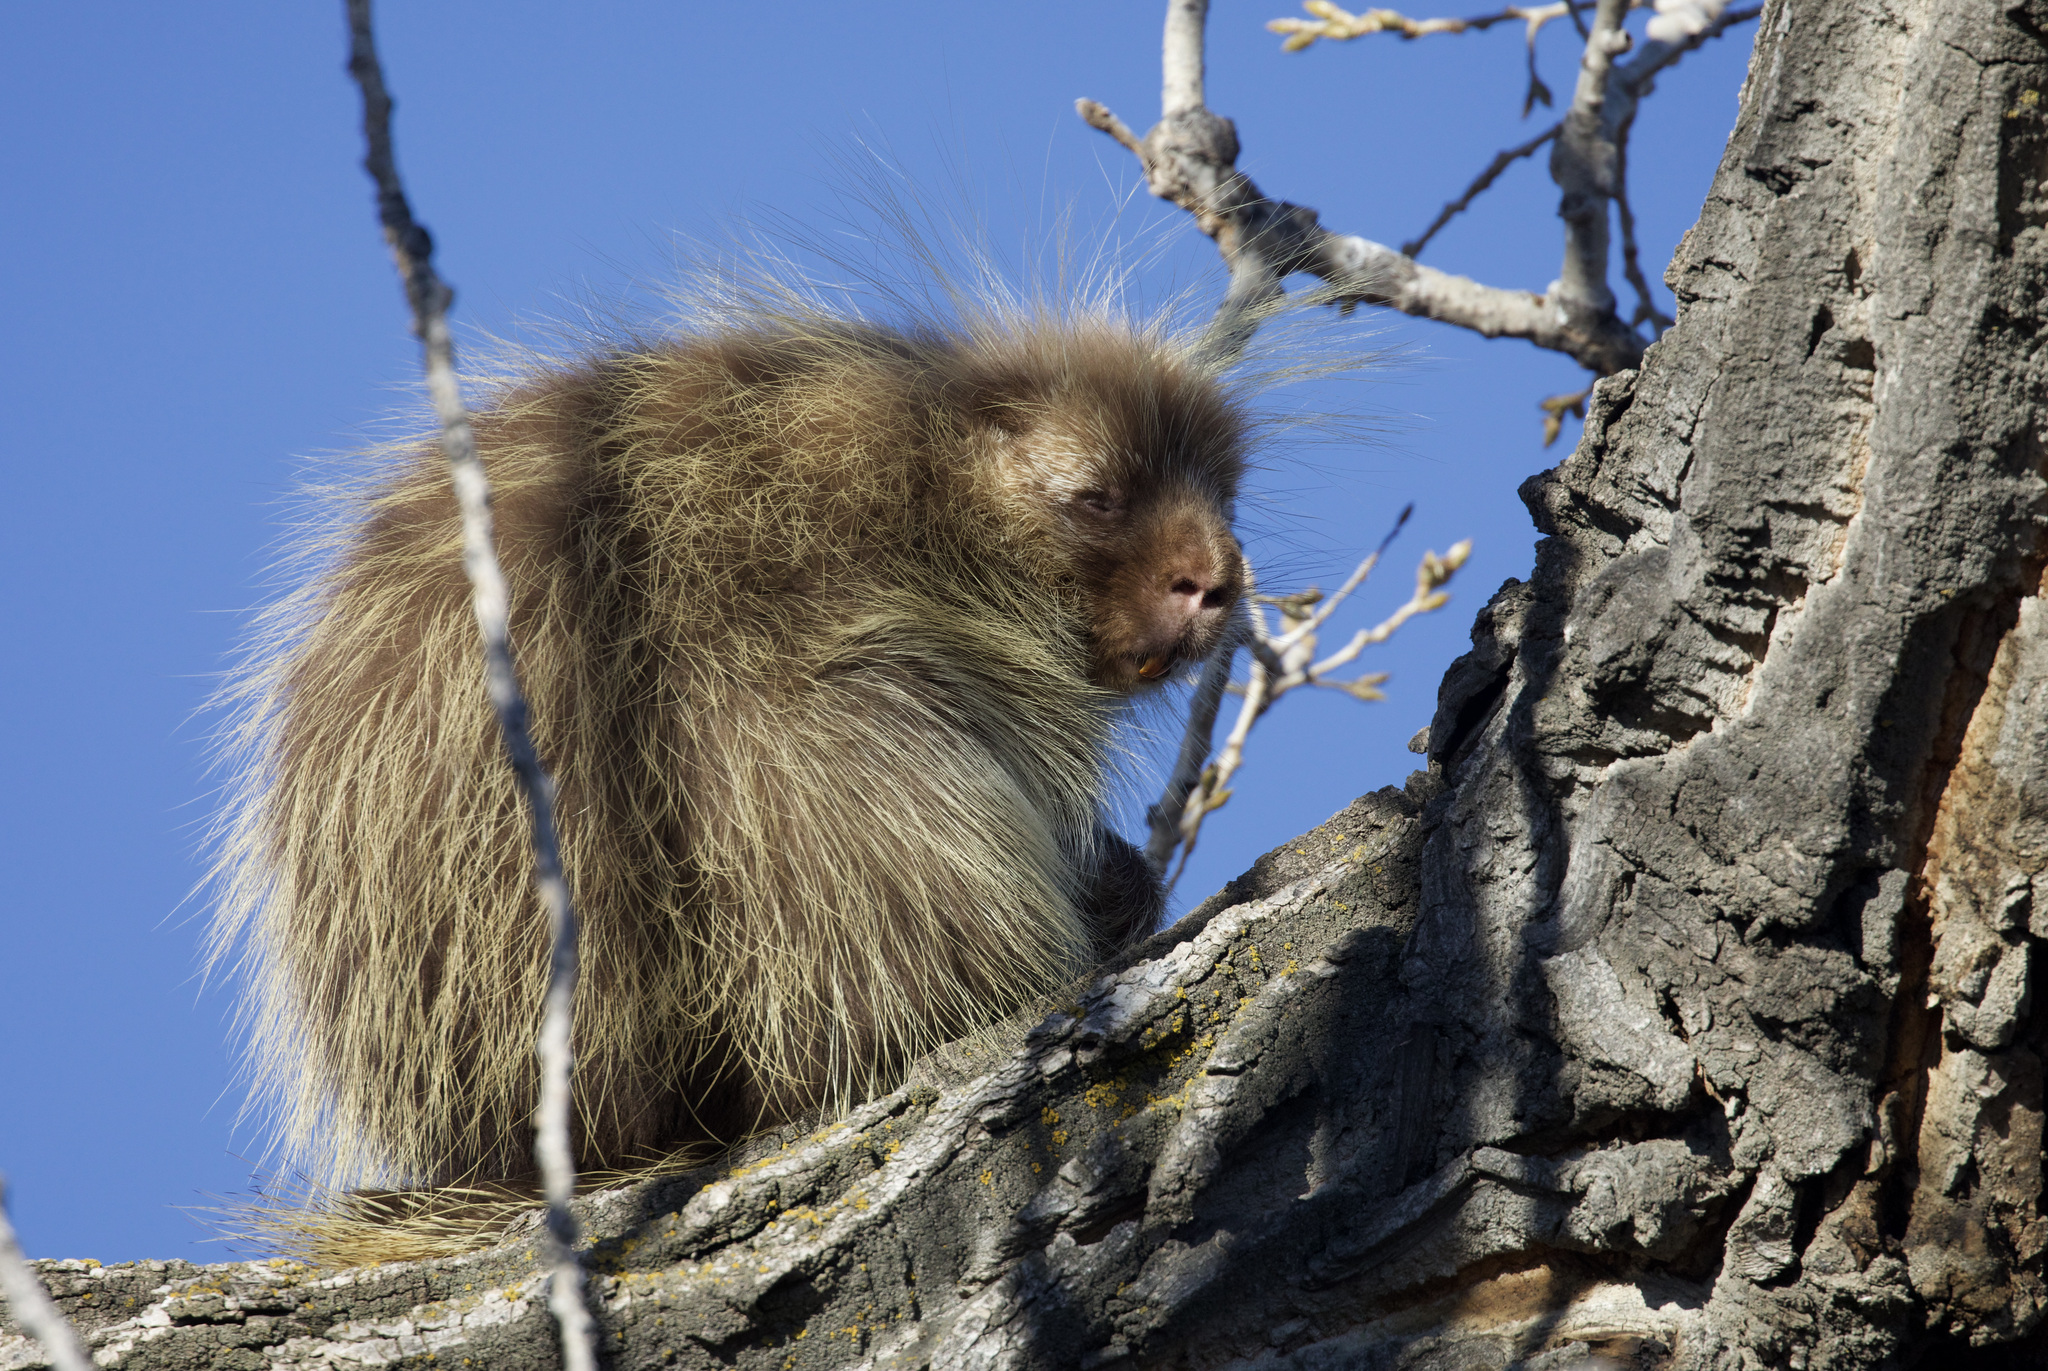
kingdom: Animalia
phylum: Chordata
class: Mammalia
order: Rodentia
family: Erethizontidae
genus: Erethizon
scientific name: Erethizon dorsatus
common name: North american porcupine
